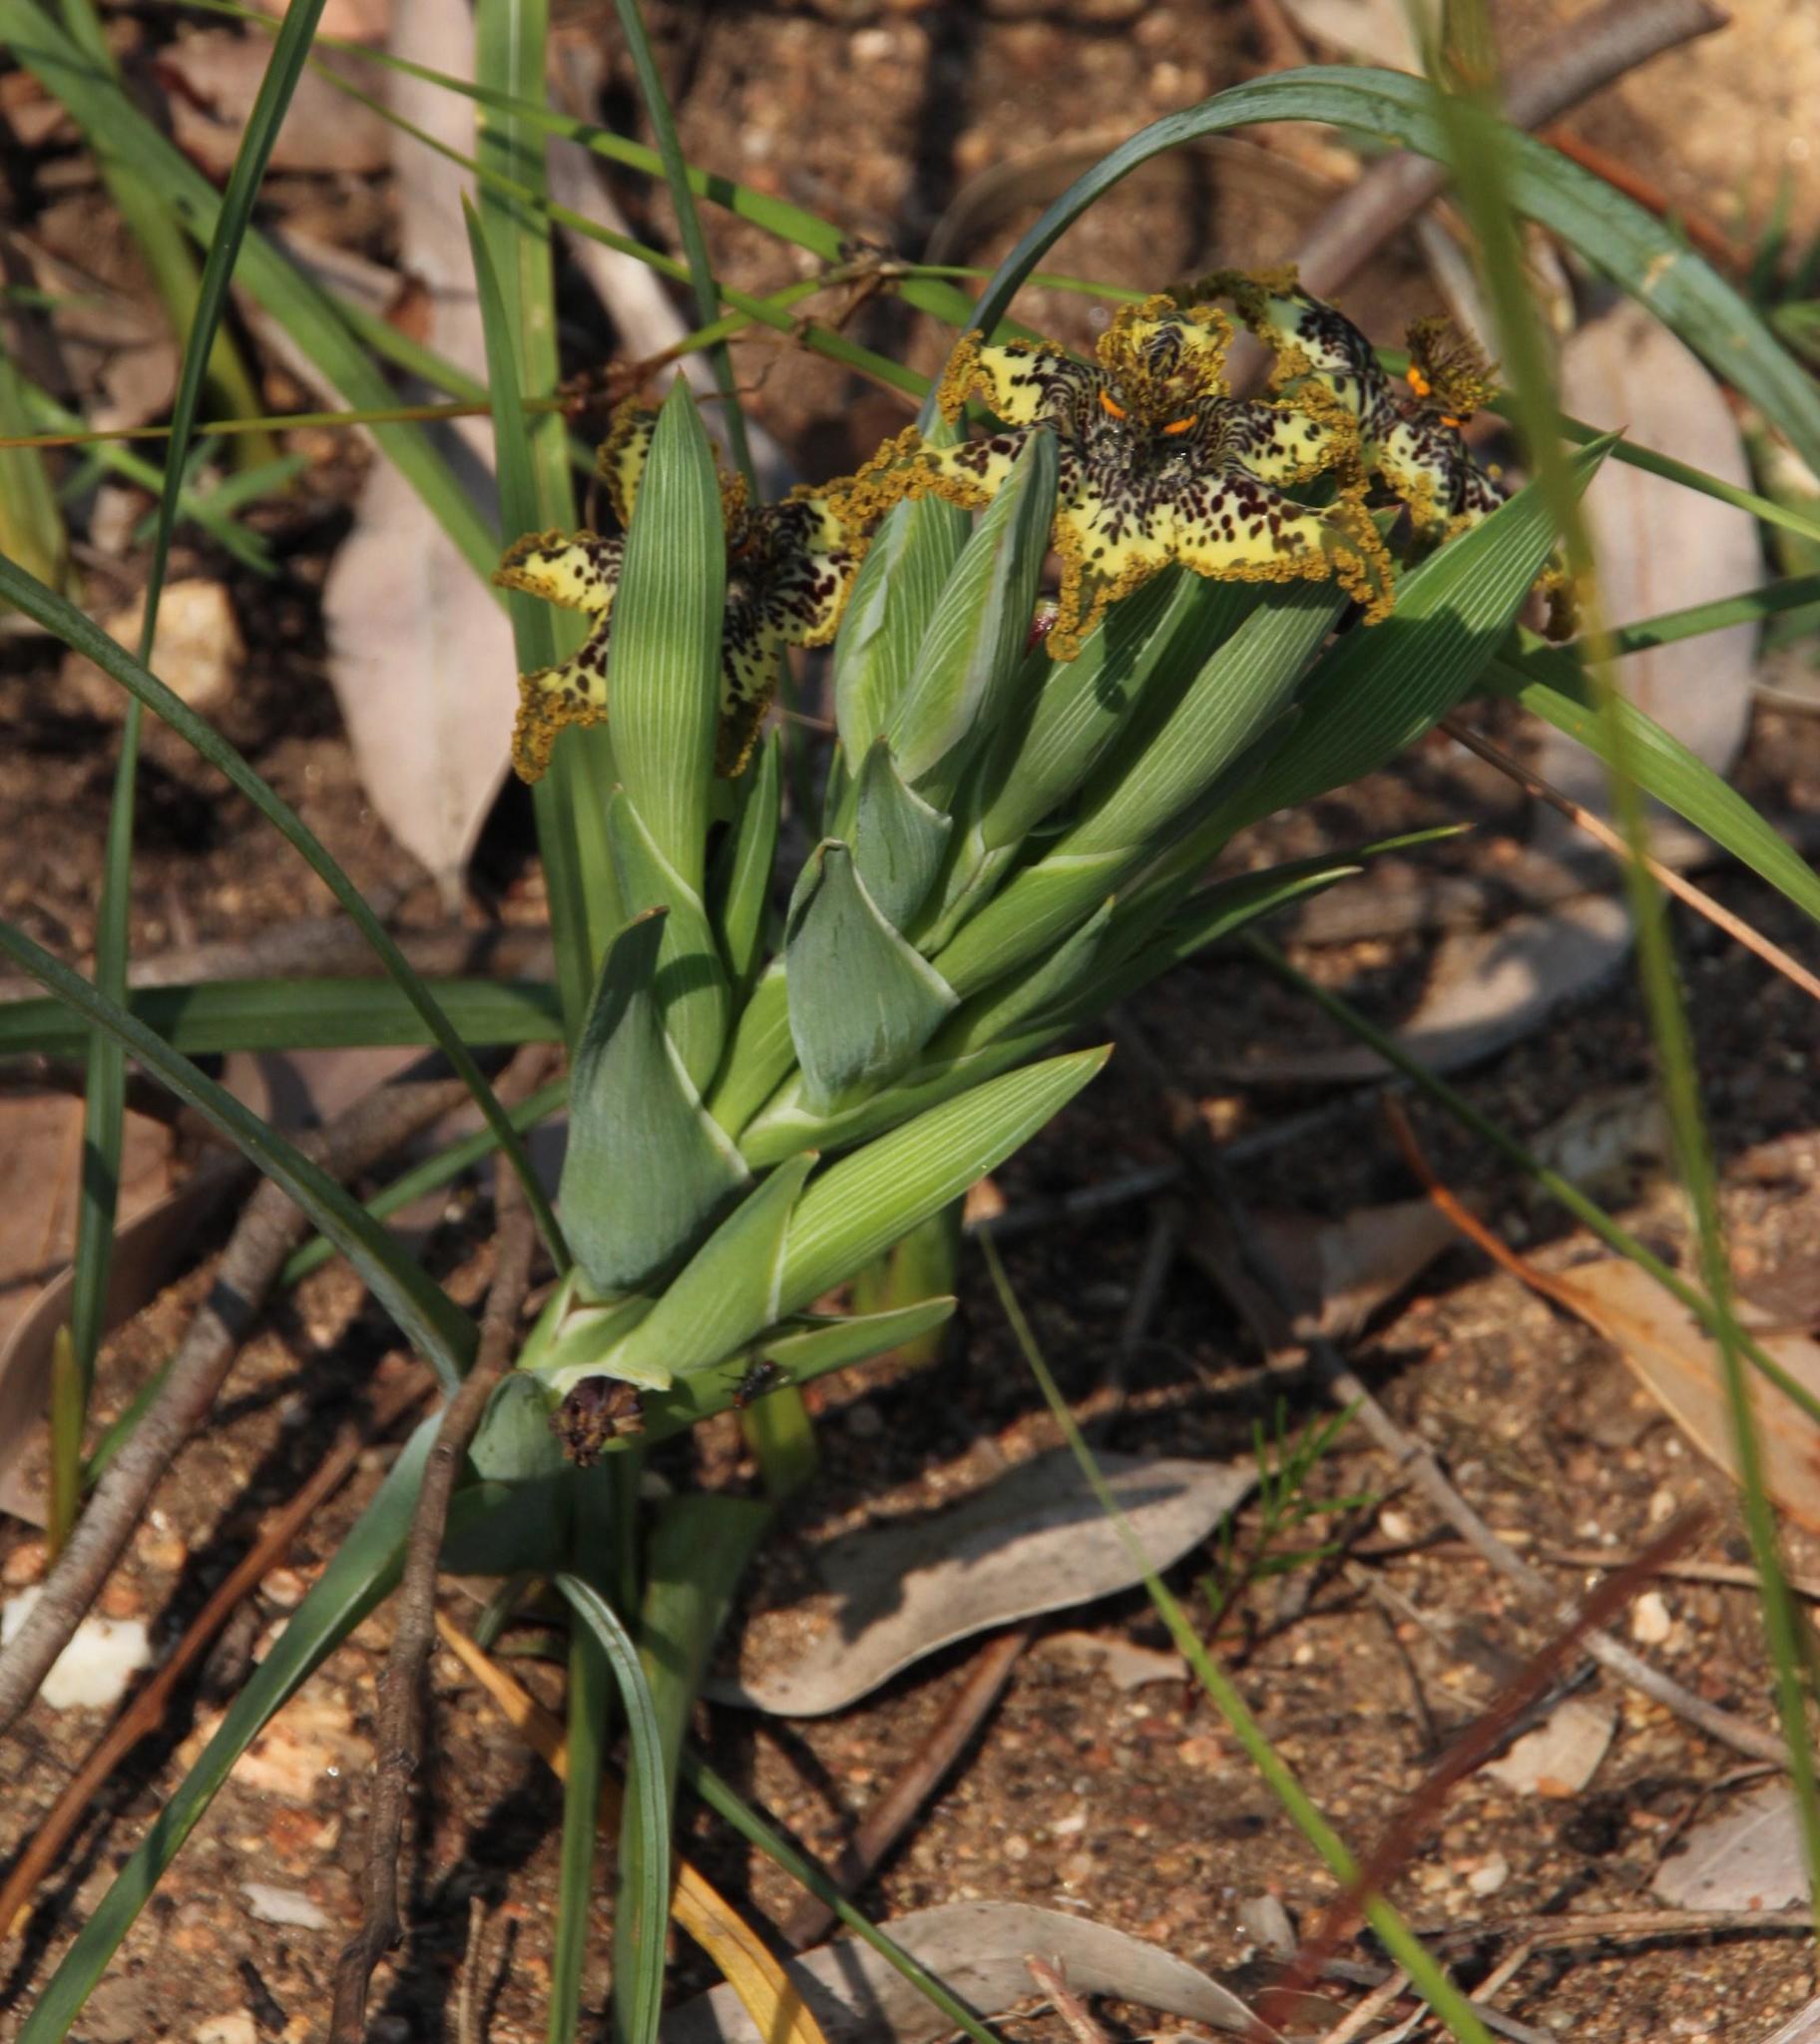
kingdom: Plantae
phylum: Tracheophyta
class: Liliopsida
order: Asparagales
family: Iridaceae
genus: Ferraria
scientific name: Ferraria crispa
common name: Black-flag
